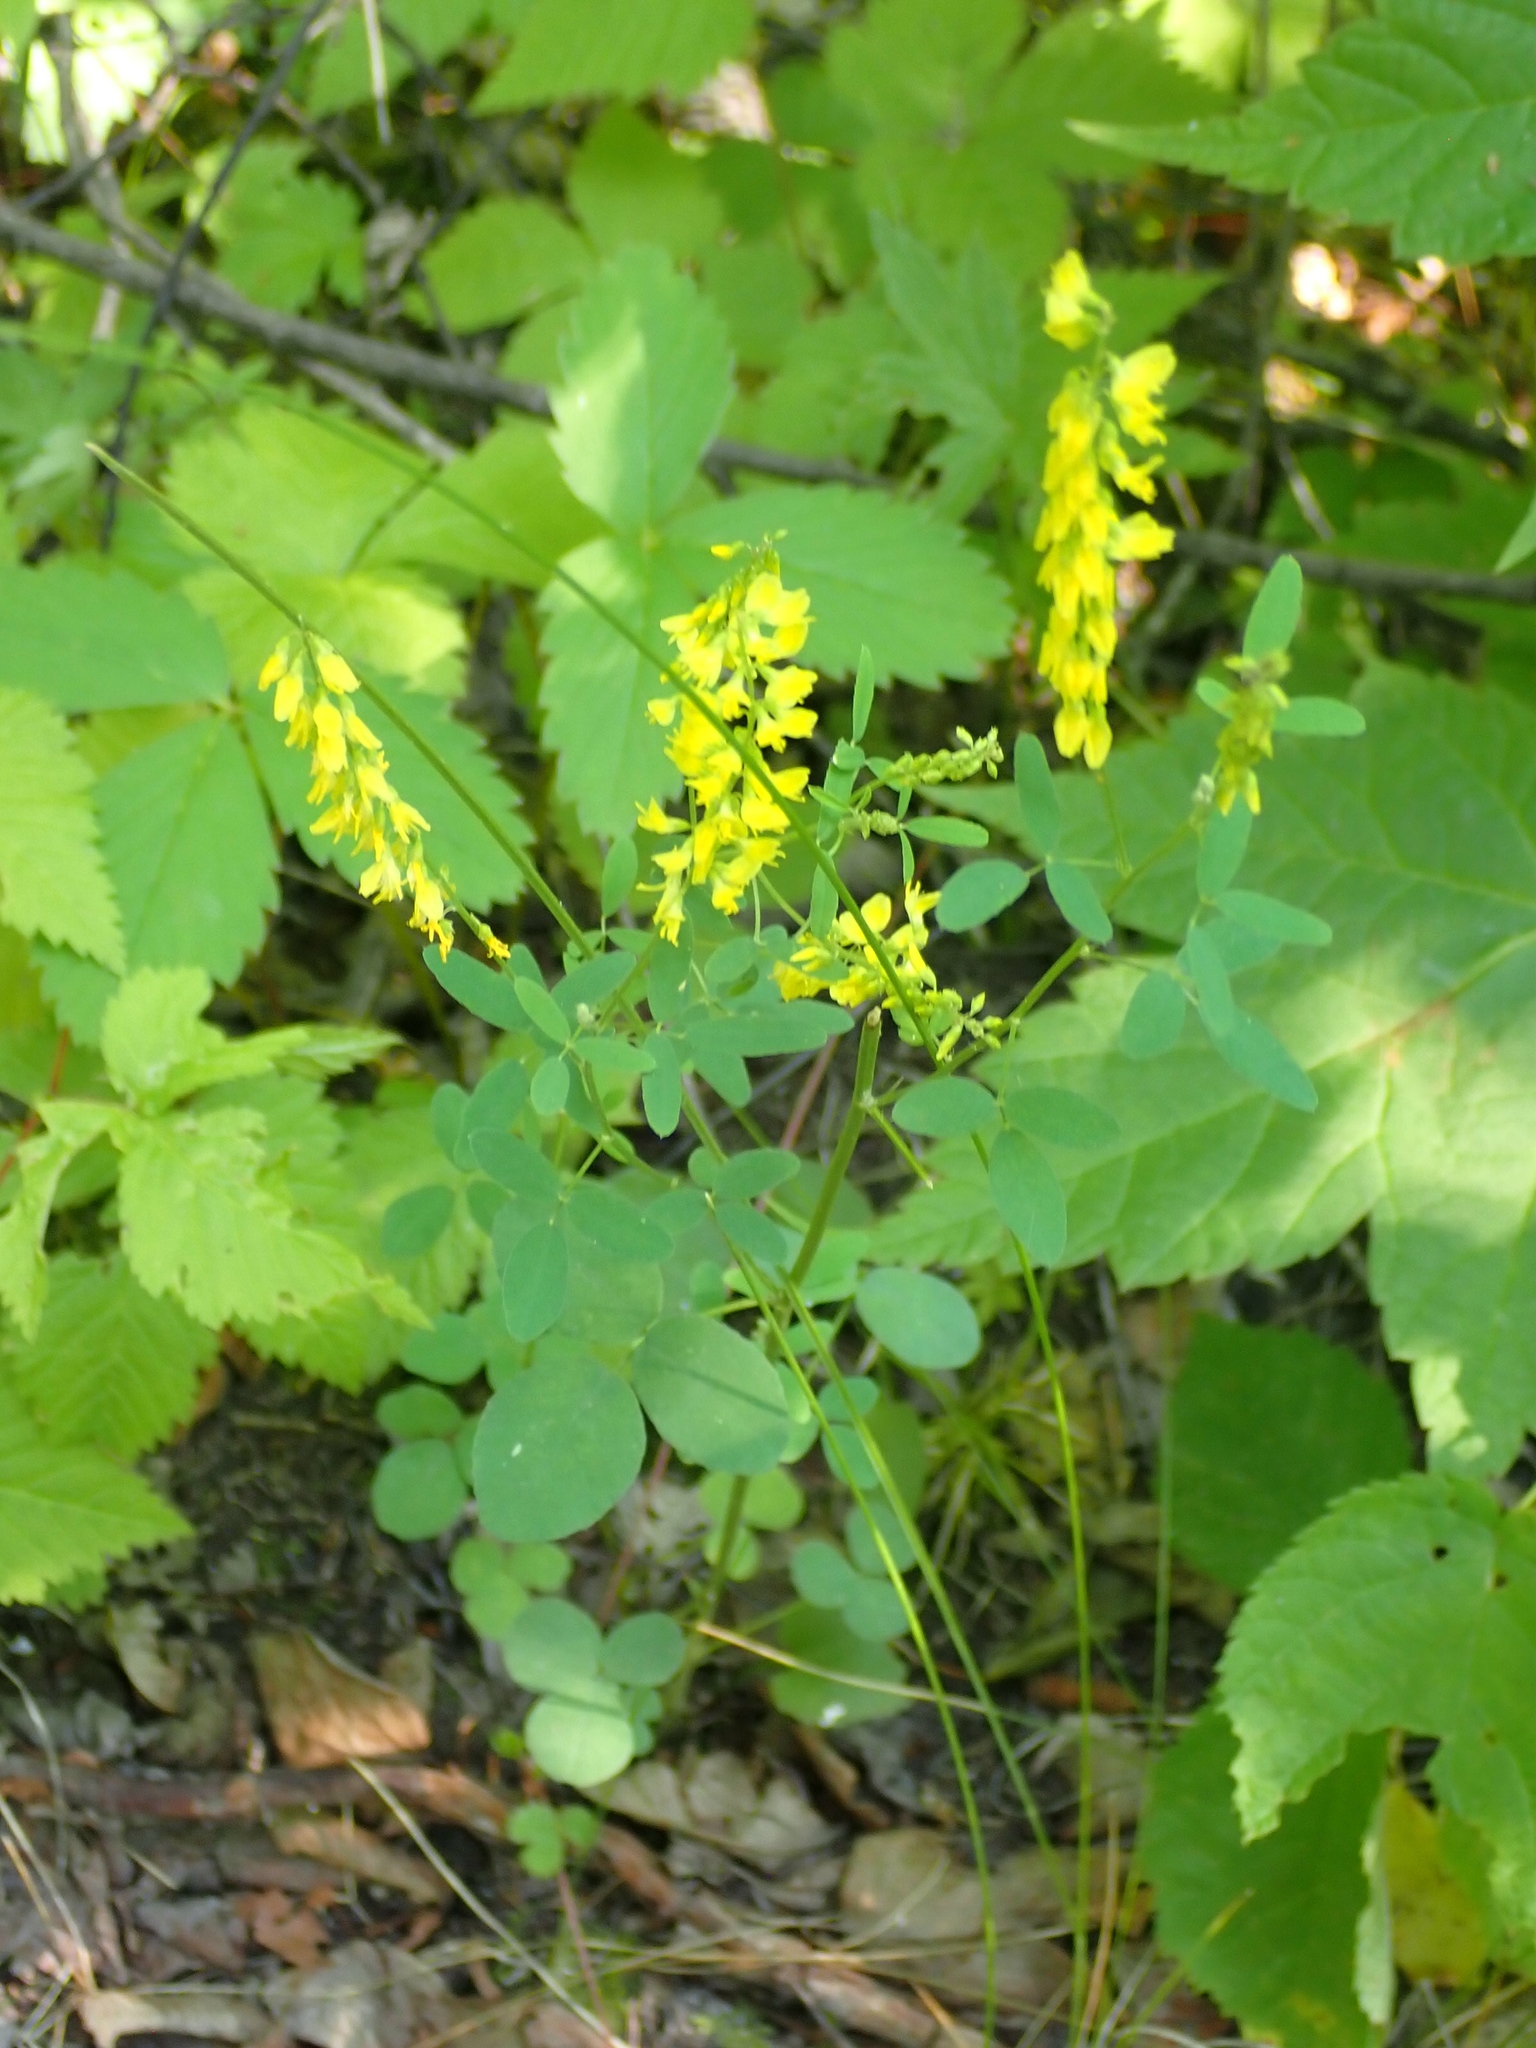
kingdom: Plantae
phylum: Tracheophyta
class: Magnoliopsida
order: Fabales
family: Fabaceae
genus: Melilotus
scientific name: Melilotus officinalis
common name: Sweetclover
